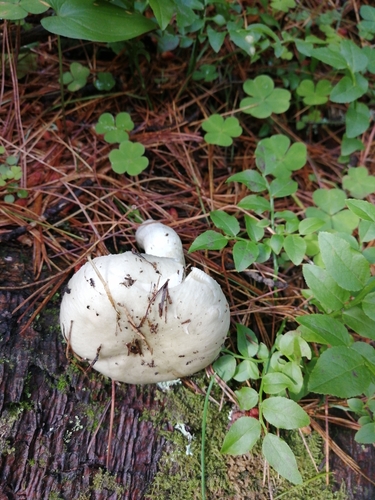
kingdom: Fungi
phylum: Basidiomycota
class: Agaricomycetes
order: Russulales
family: Russulaceae
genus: Russula
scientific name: Russula
